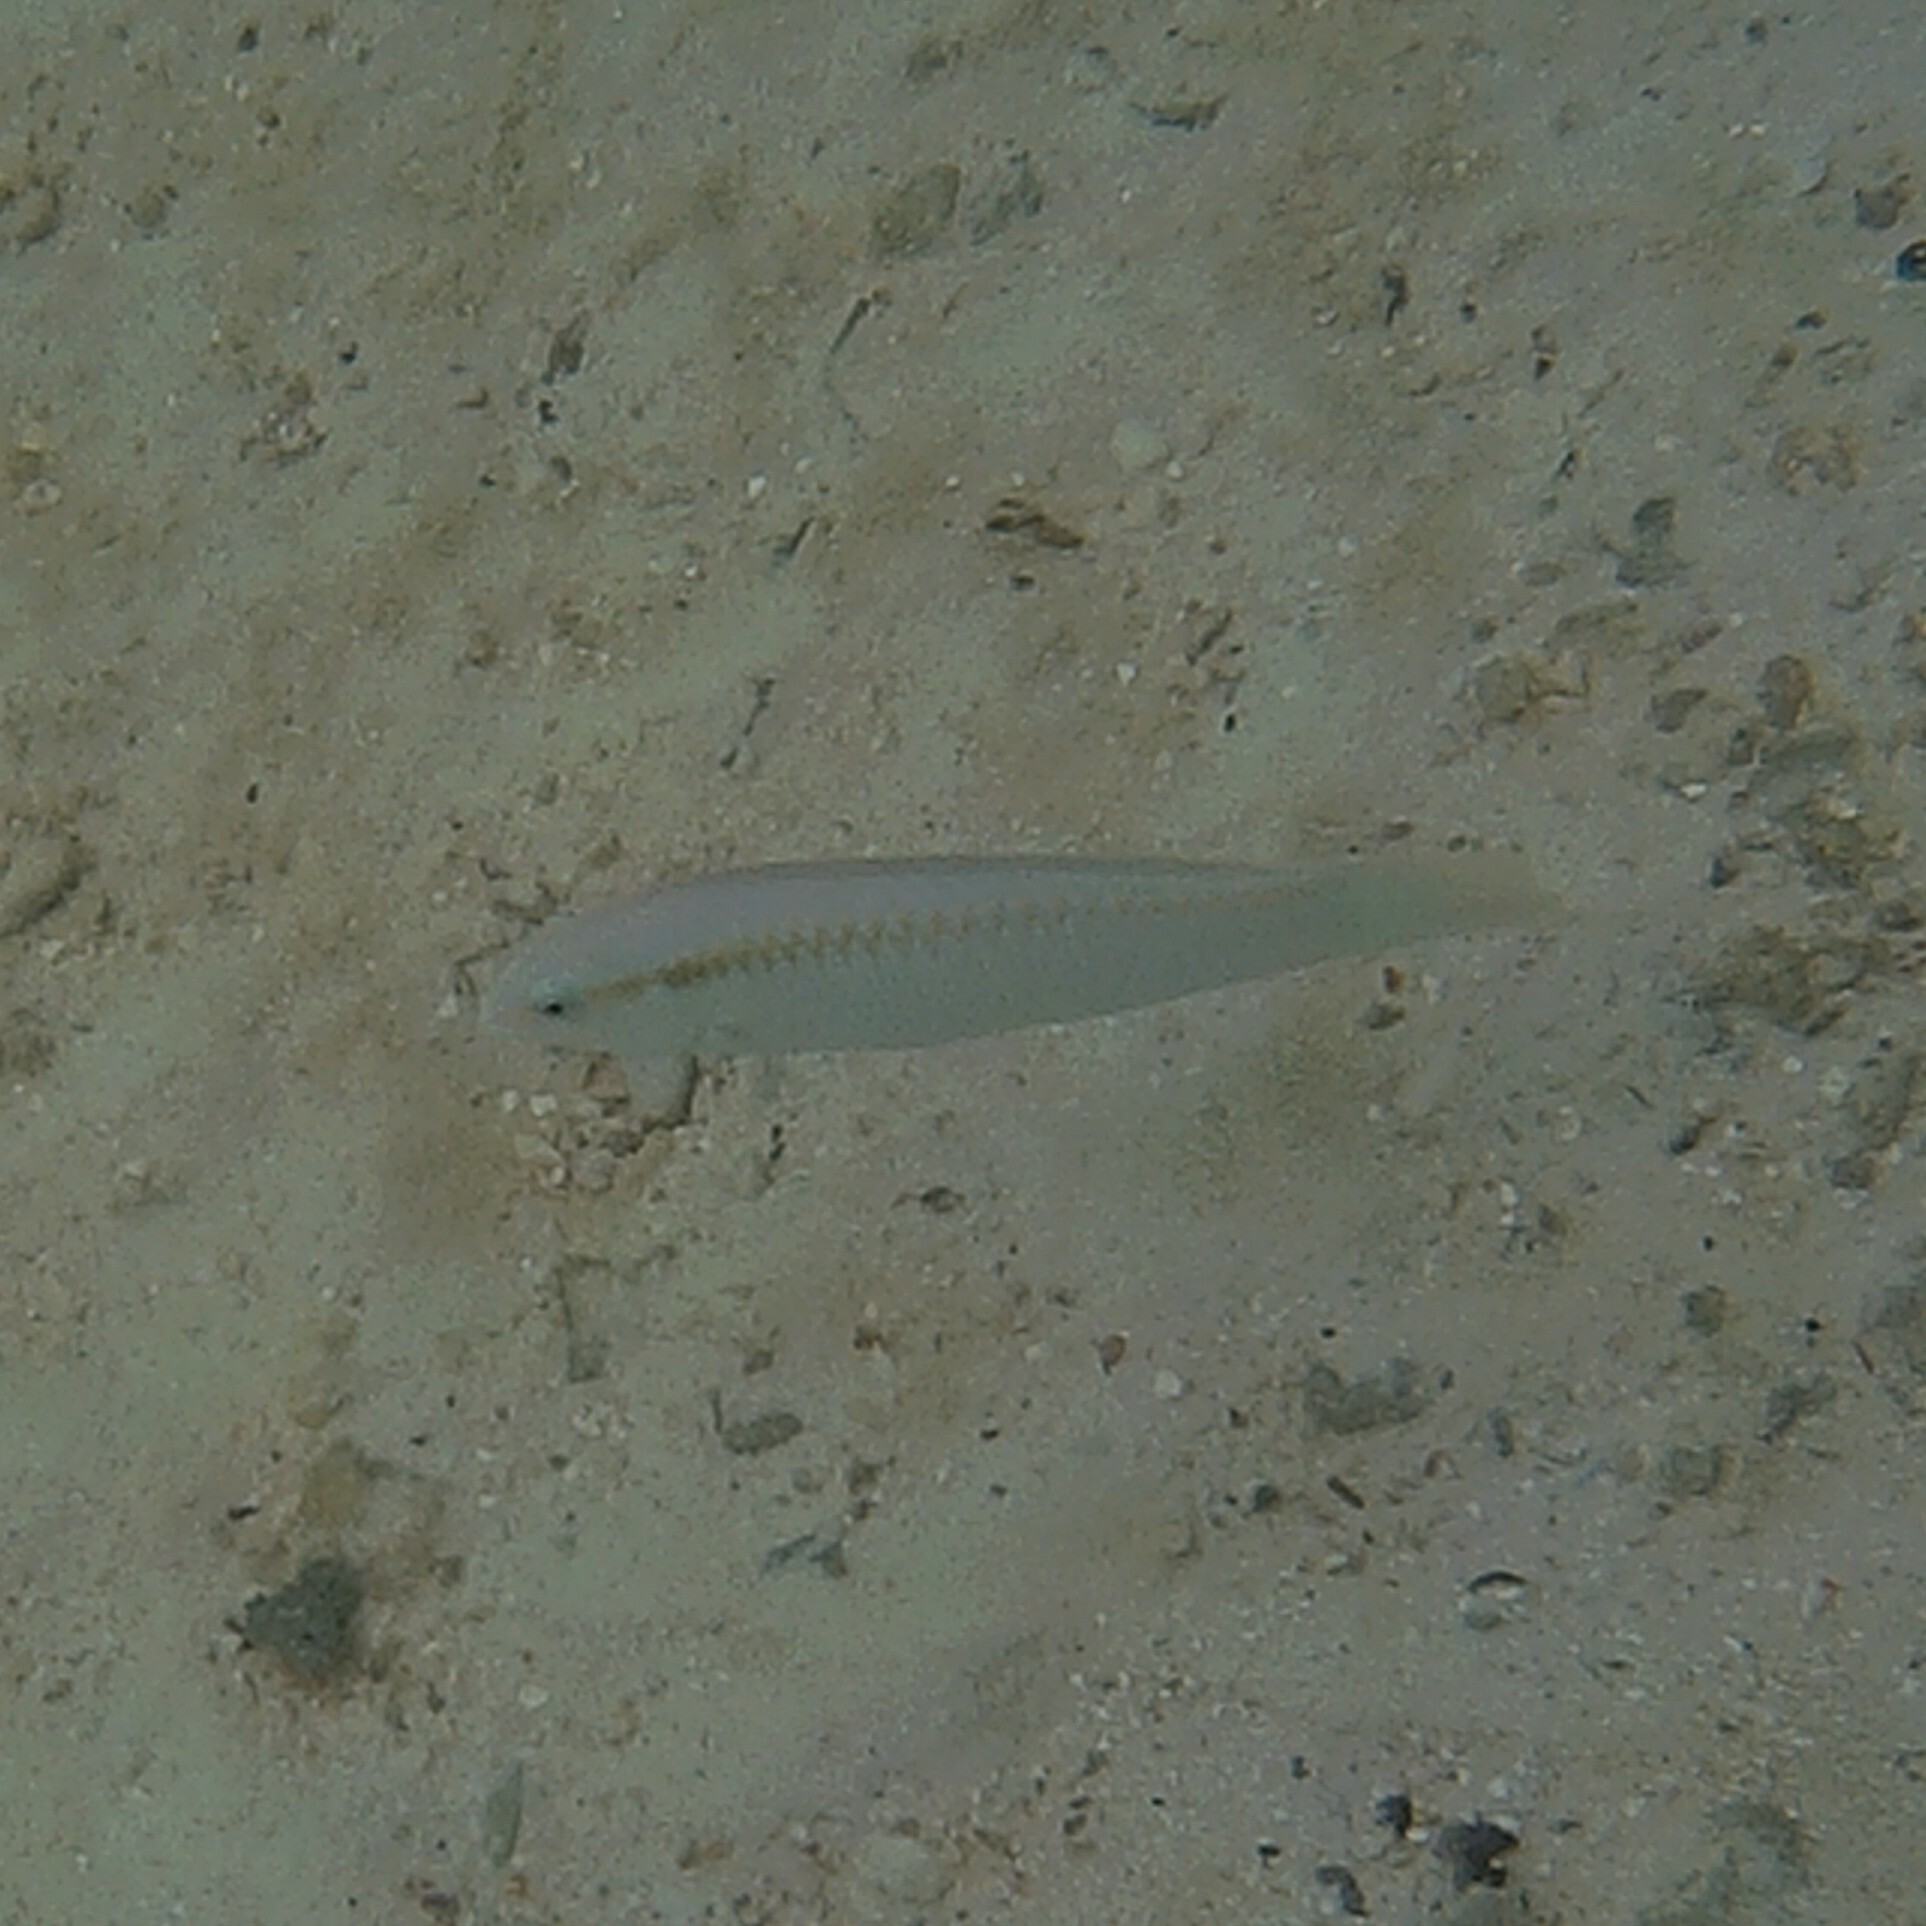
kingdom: Animalia
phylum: Chordata
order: Perciformes
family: Labridae
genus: Halichoeres
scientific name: Halichoeres scapularis
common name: Brownbanded wrasse
